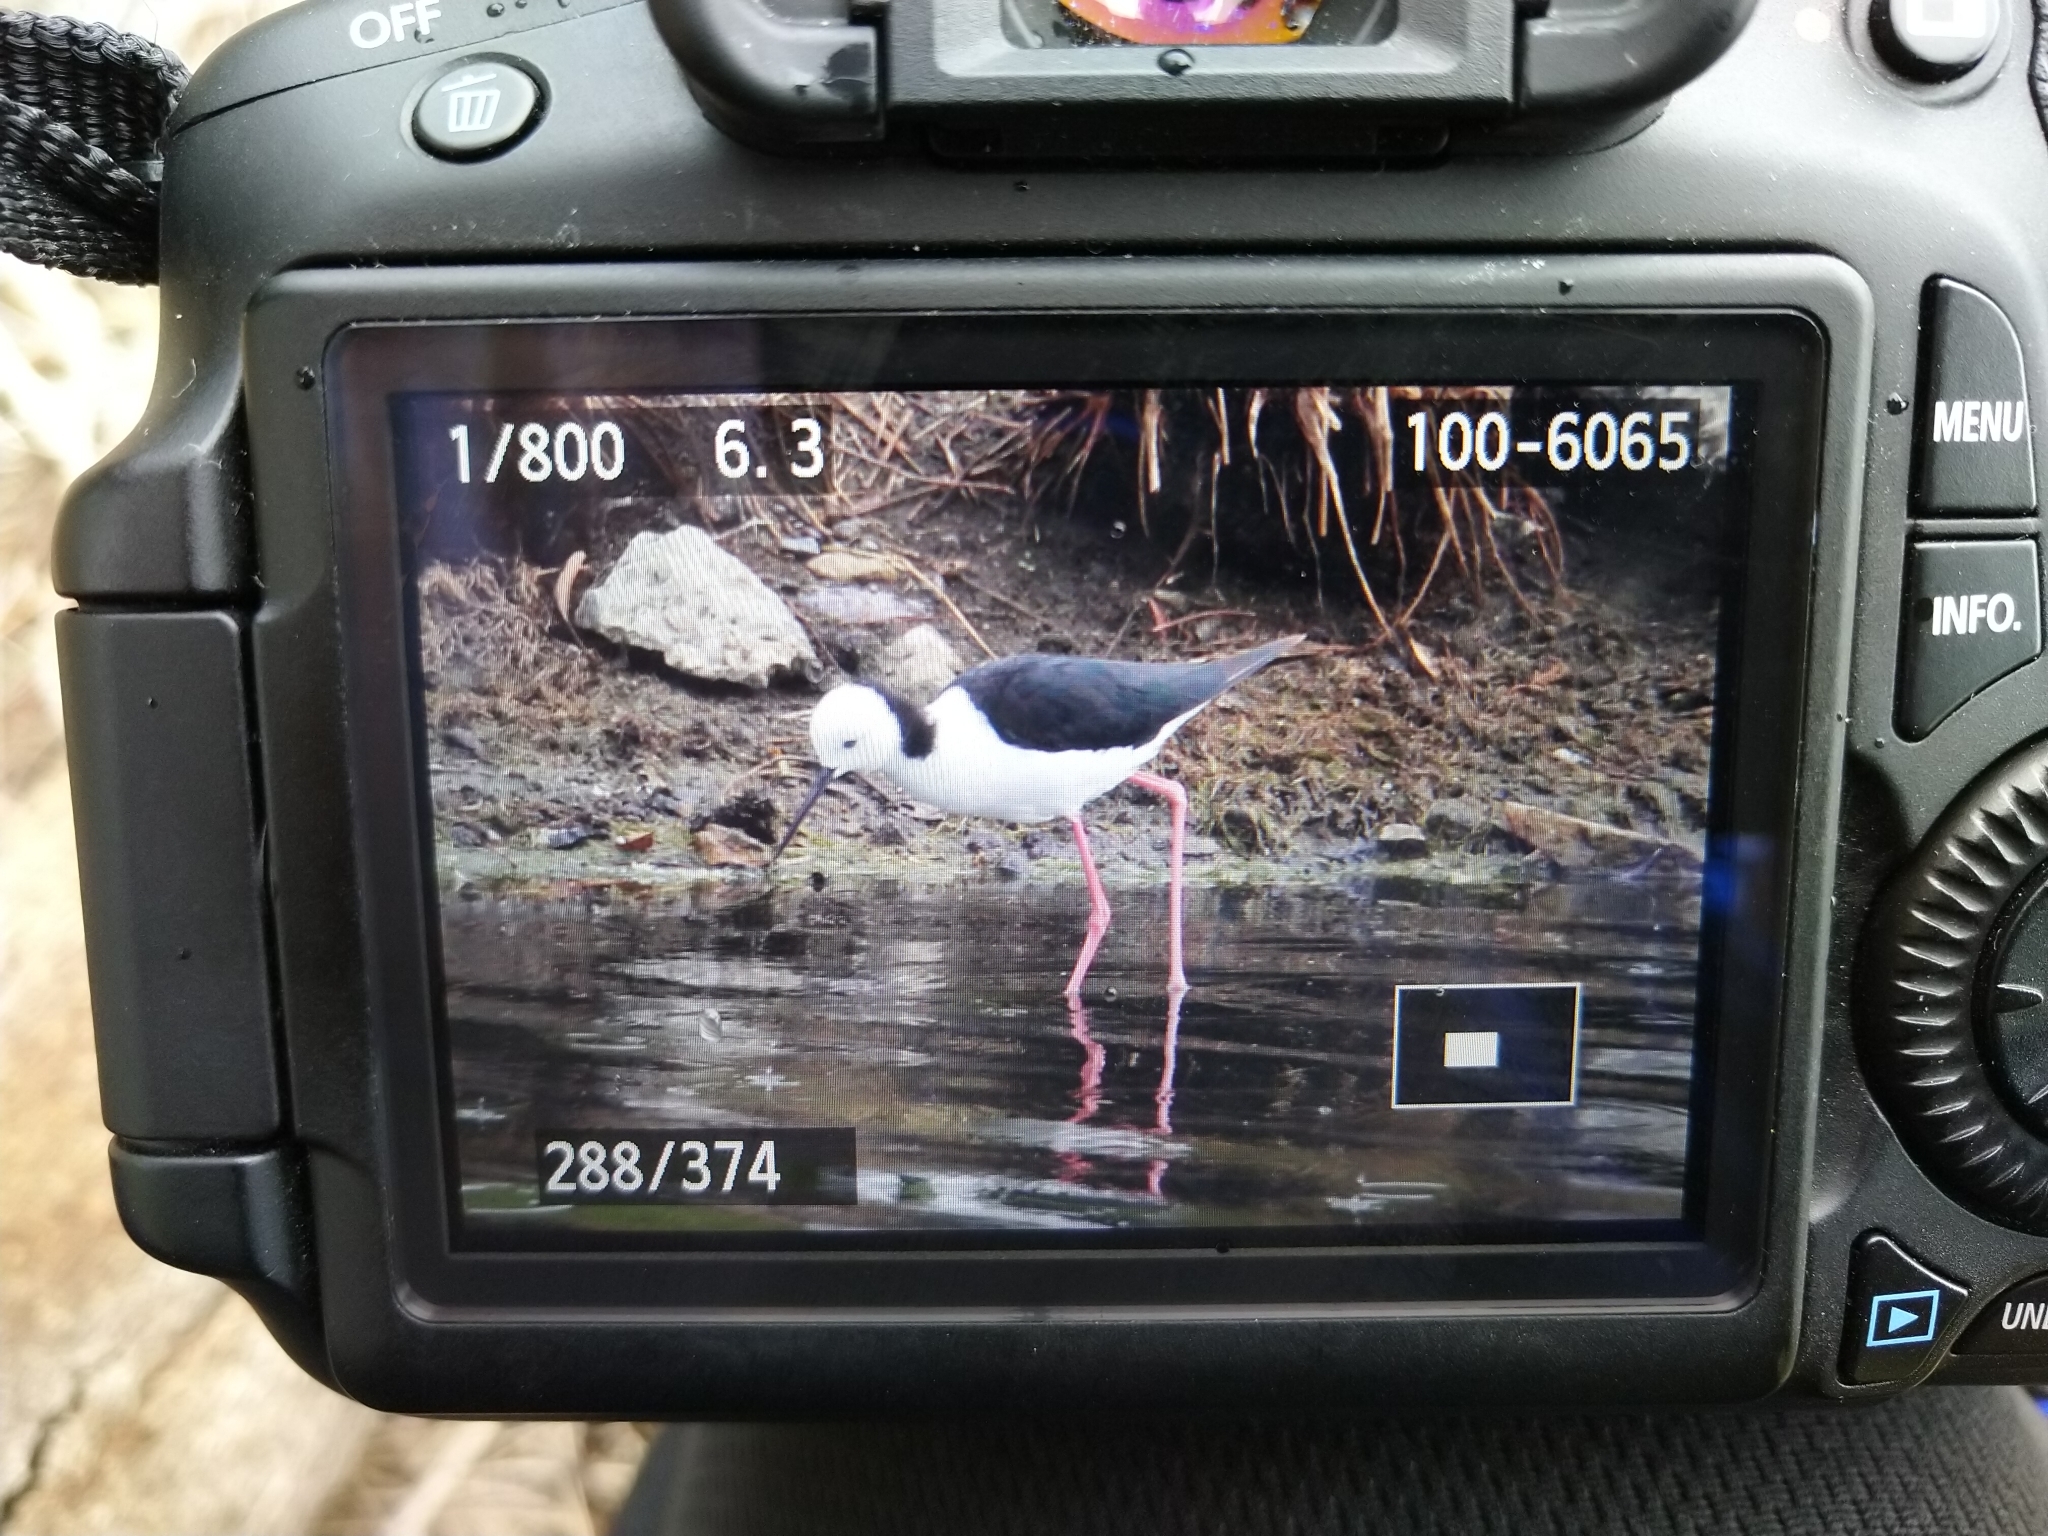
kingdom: Animalia
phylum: Chordata
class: Aves
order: Charadriiformes
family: Recurvirostridae
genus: Himantopus
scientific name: Himantopus leucocephalus
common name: White-headed stilt
